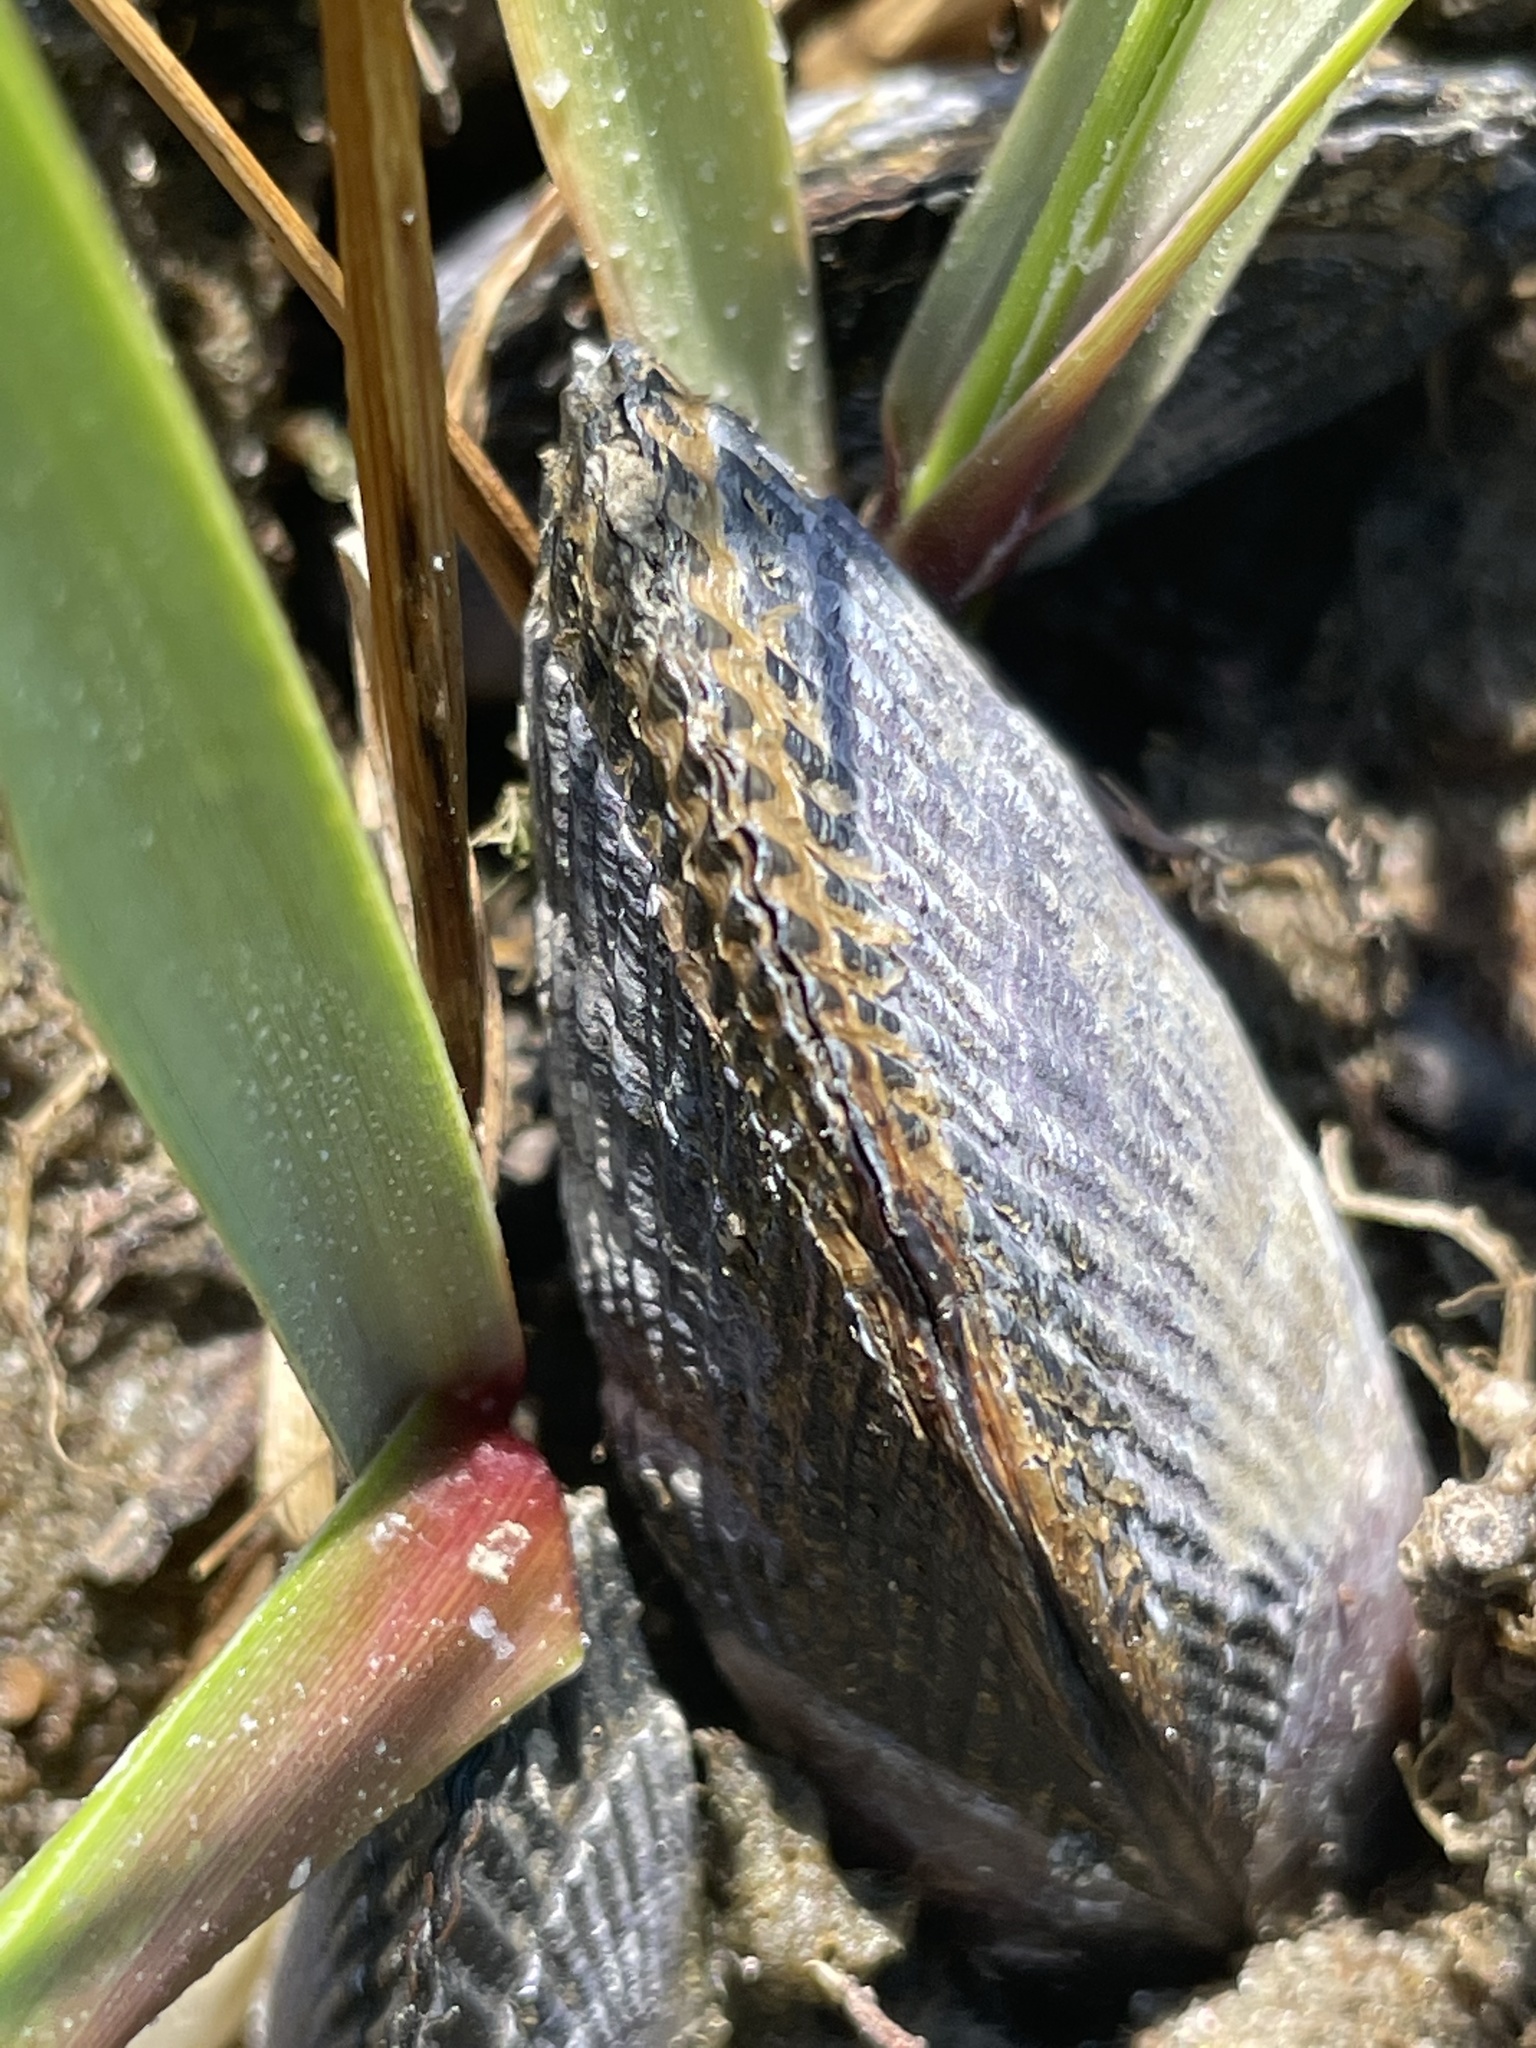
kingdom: Animalia
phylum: Mollusca
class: Bivalvia
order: Mytilida
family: Mytilidae
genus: Geukensia
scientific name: Geukensia demissa
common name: Ribbed mussel
